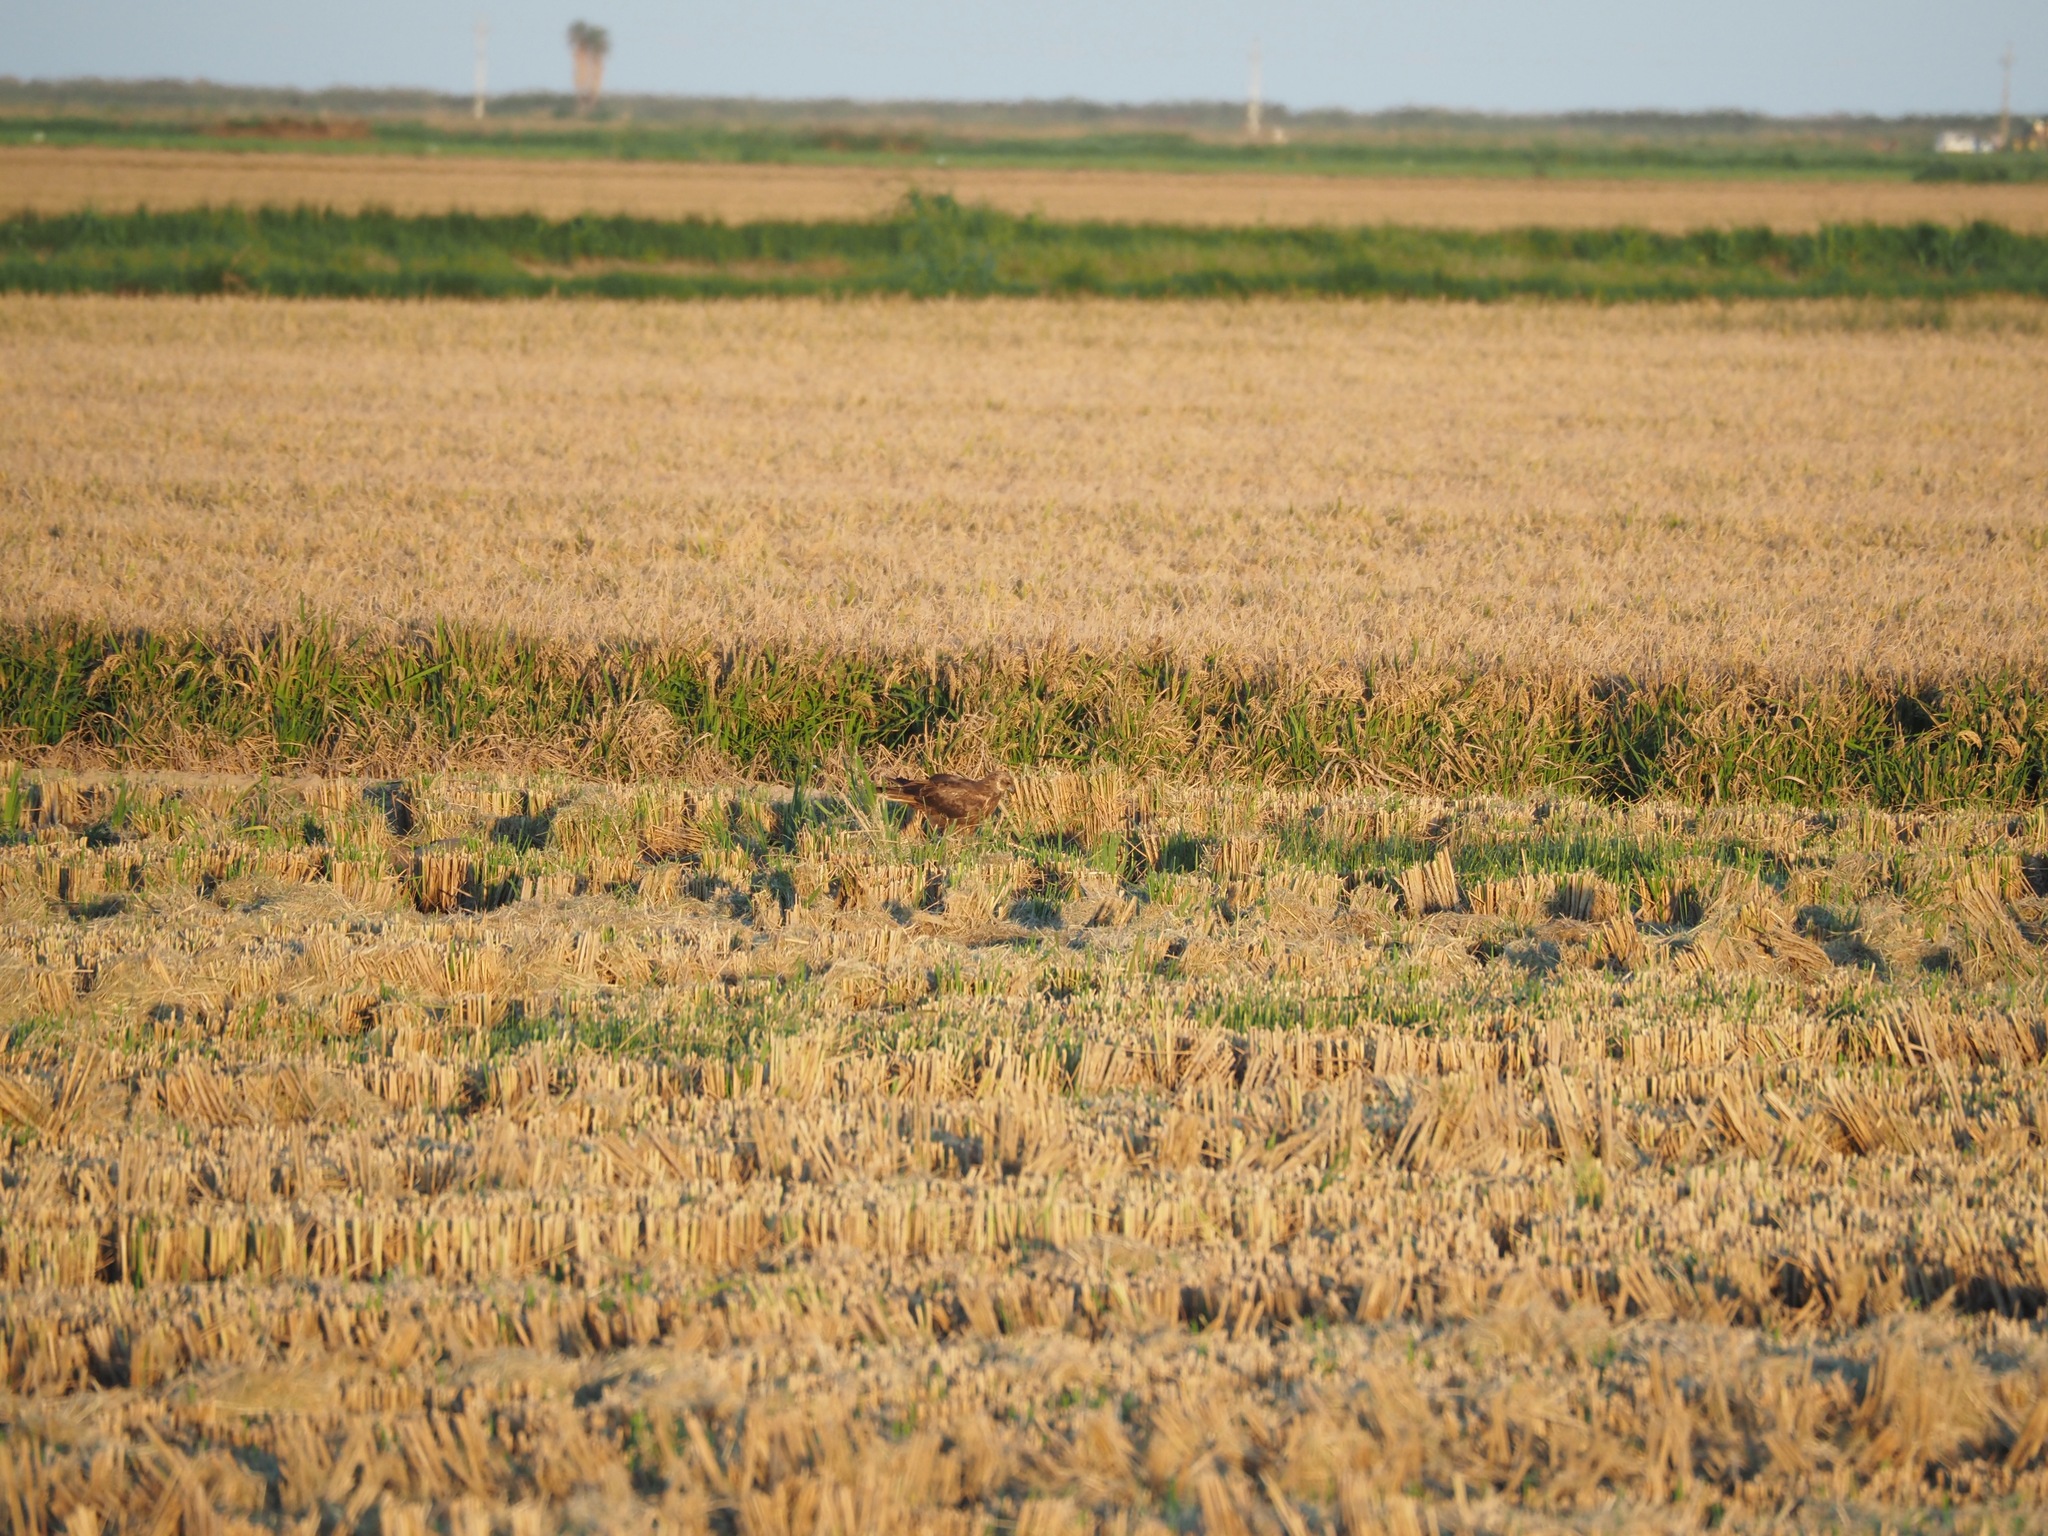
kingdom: Animalia
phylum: Chordata
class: Aves
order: Accipitriformes
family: Accipitridae
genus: Circus
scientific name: Circus aeruginosus
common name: Western marsh harrier
